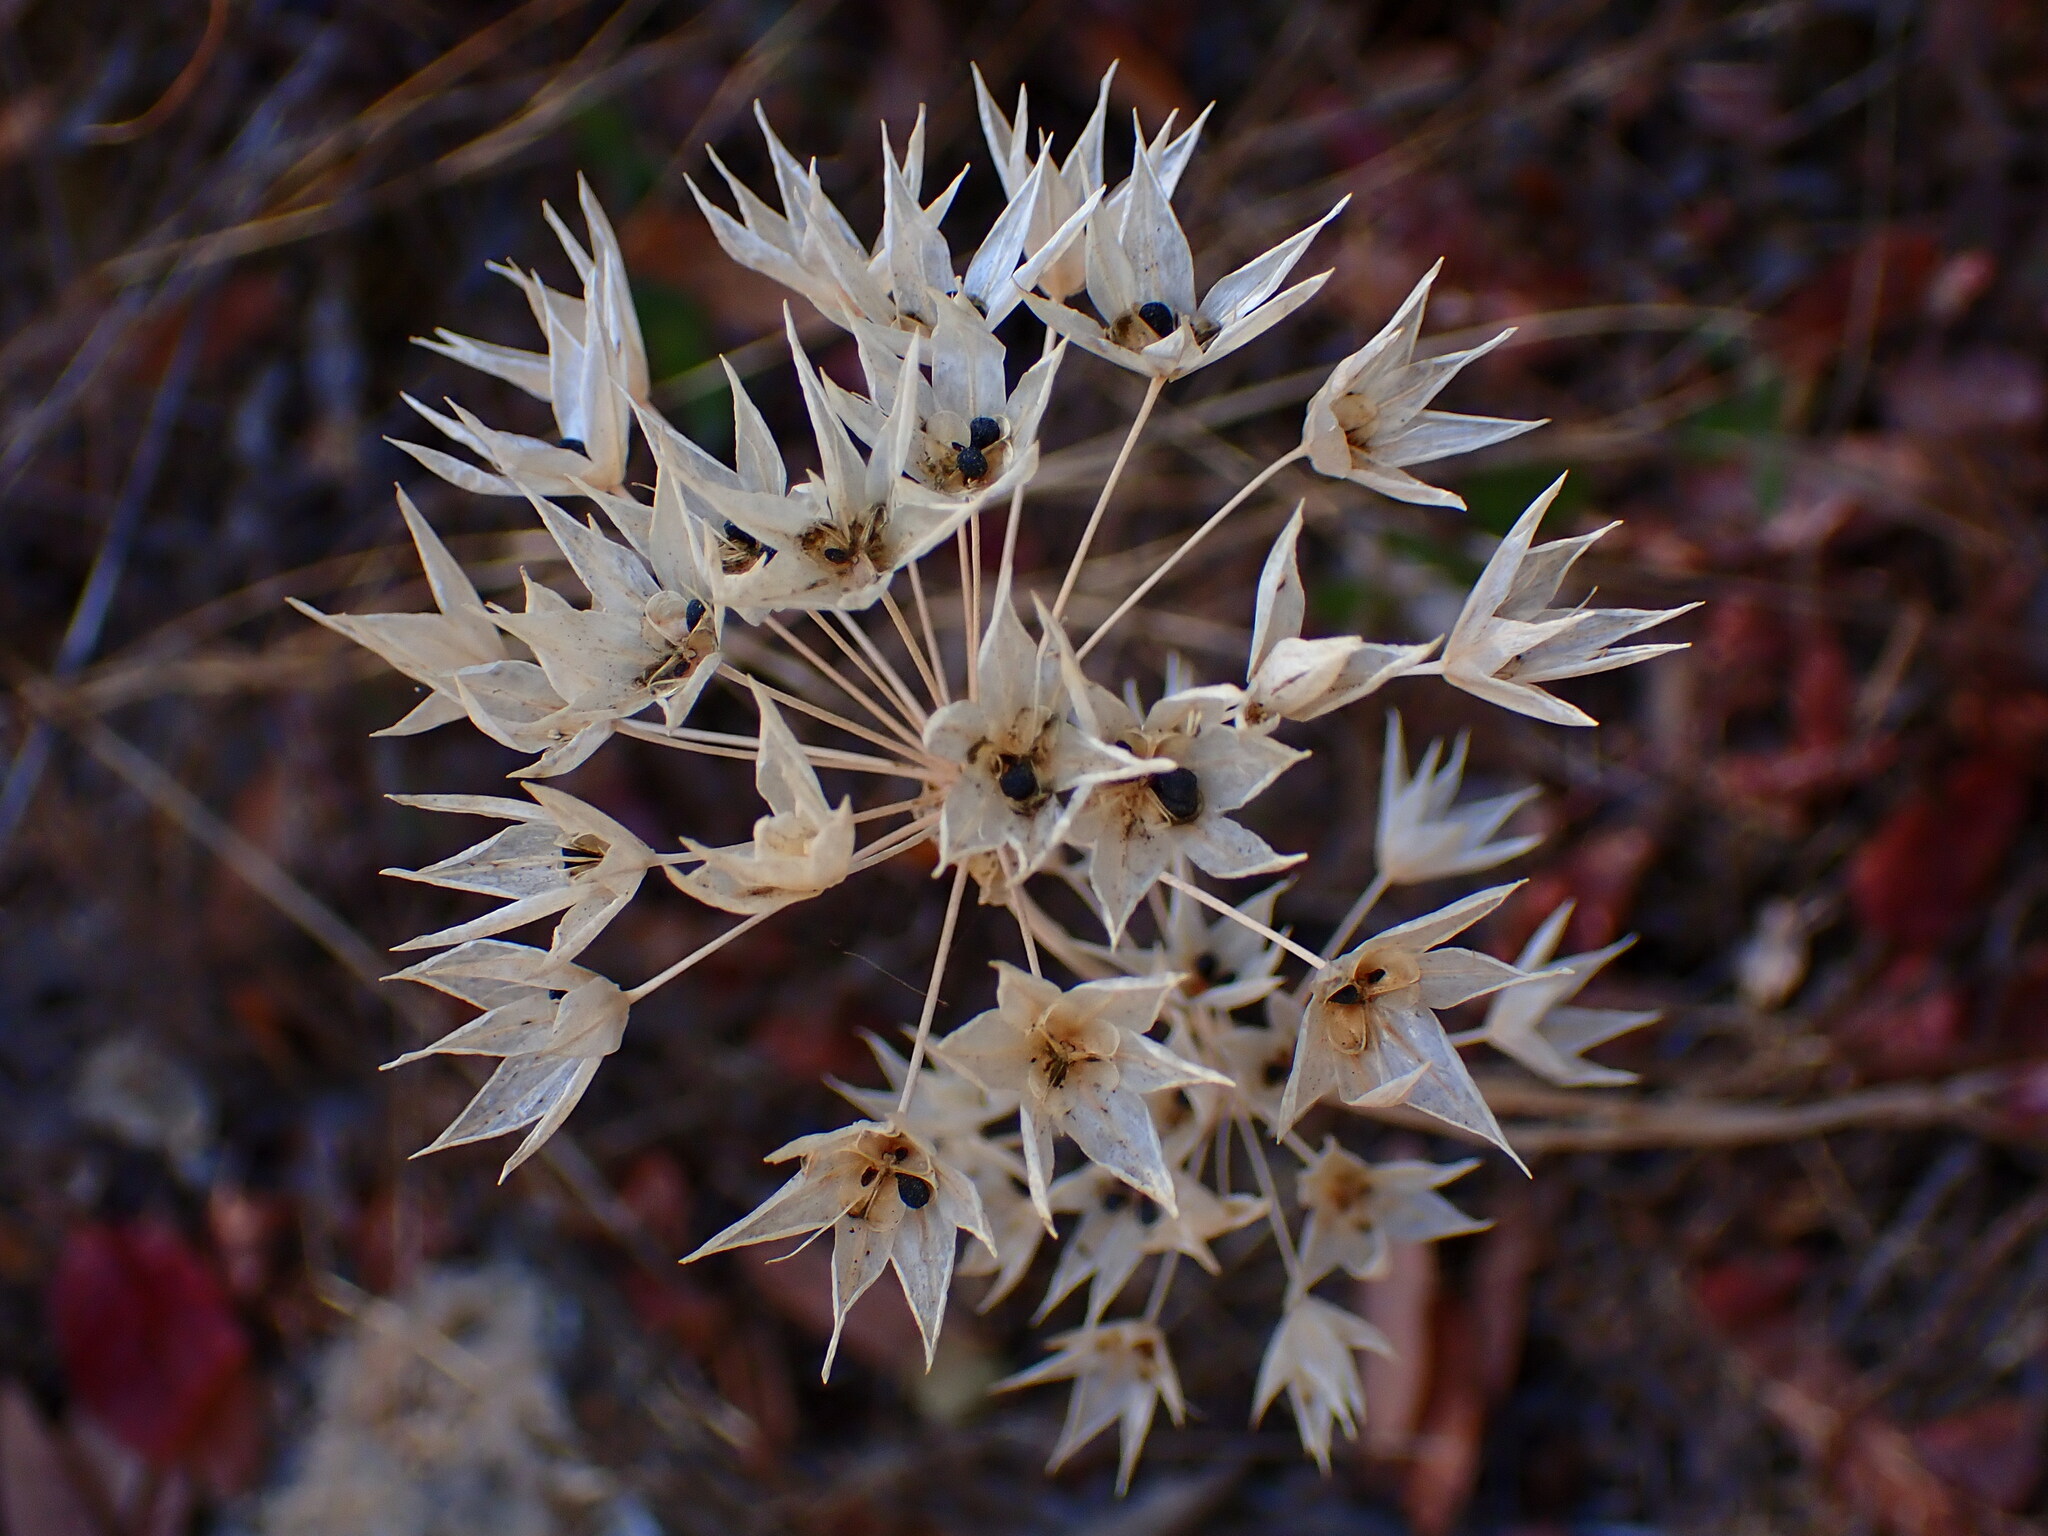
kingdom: Plantae
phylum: Tracheophyta
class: Liliopsida
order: Asparagales
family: Amaryllidaceae
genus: Allium
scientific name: Allium unifolium
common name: American garlic
